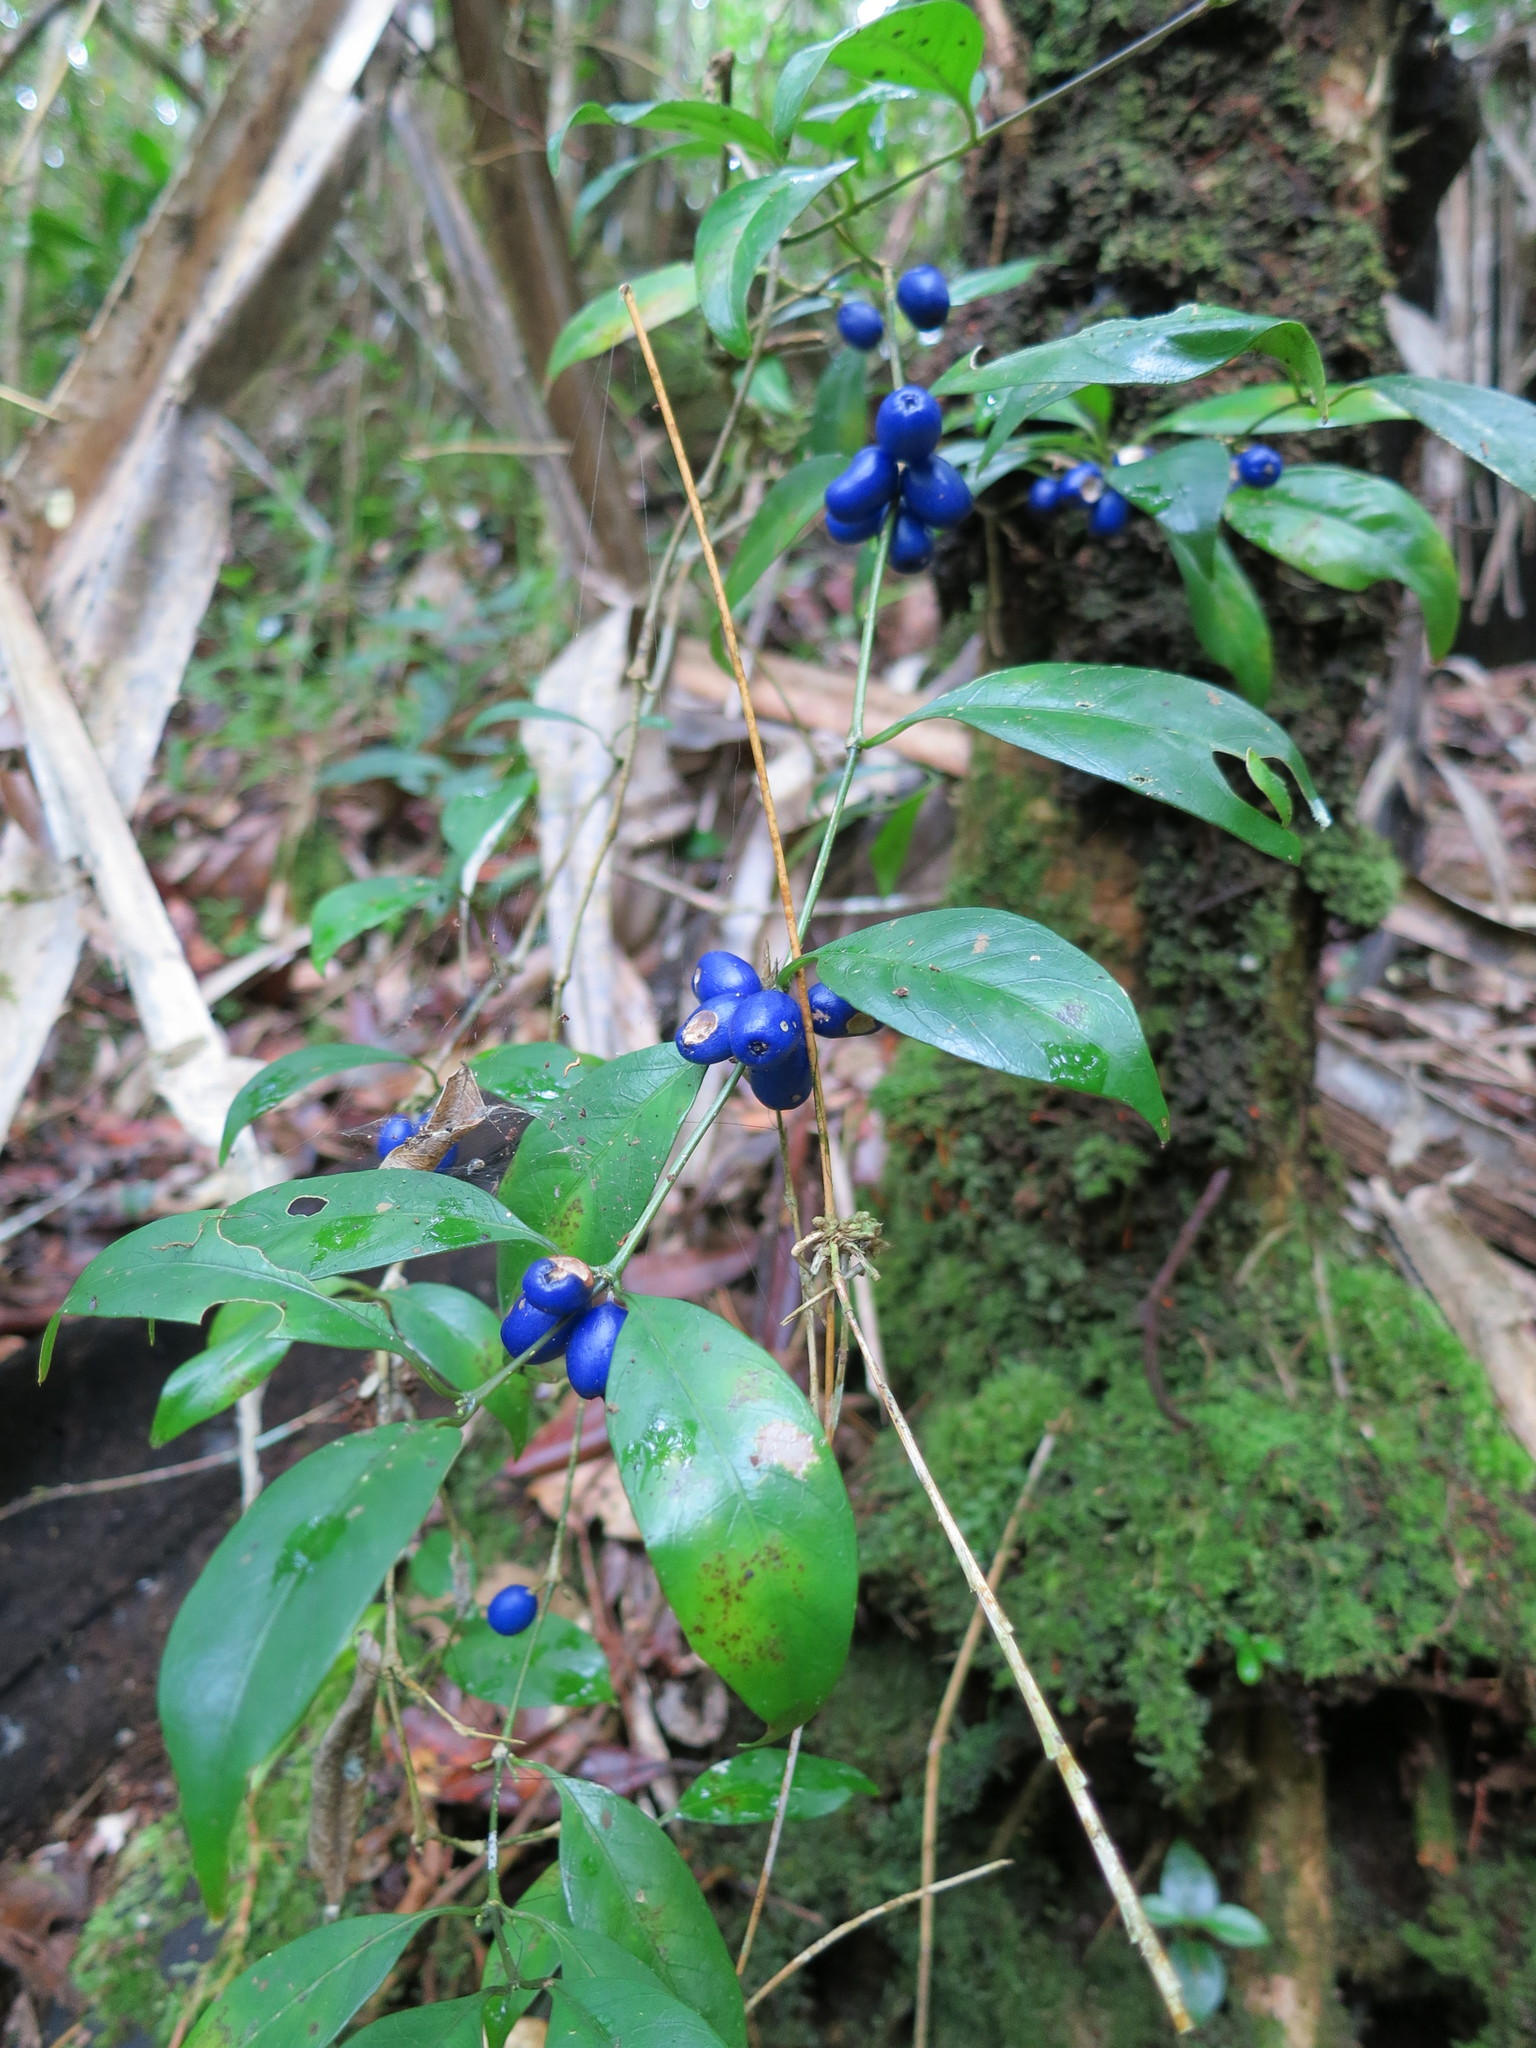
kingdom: Plantae
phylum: Tracheophyta
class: Magnoliopsida
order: Gentianales
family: Rubiaceae
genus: Saldinia
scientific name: Saldinia proboscidea
